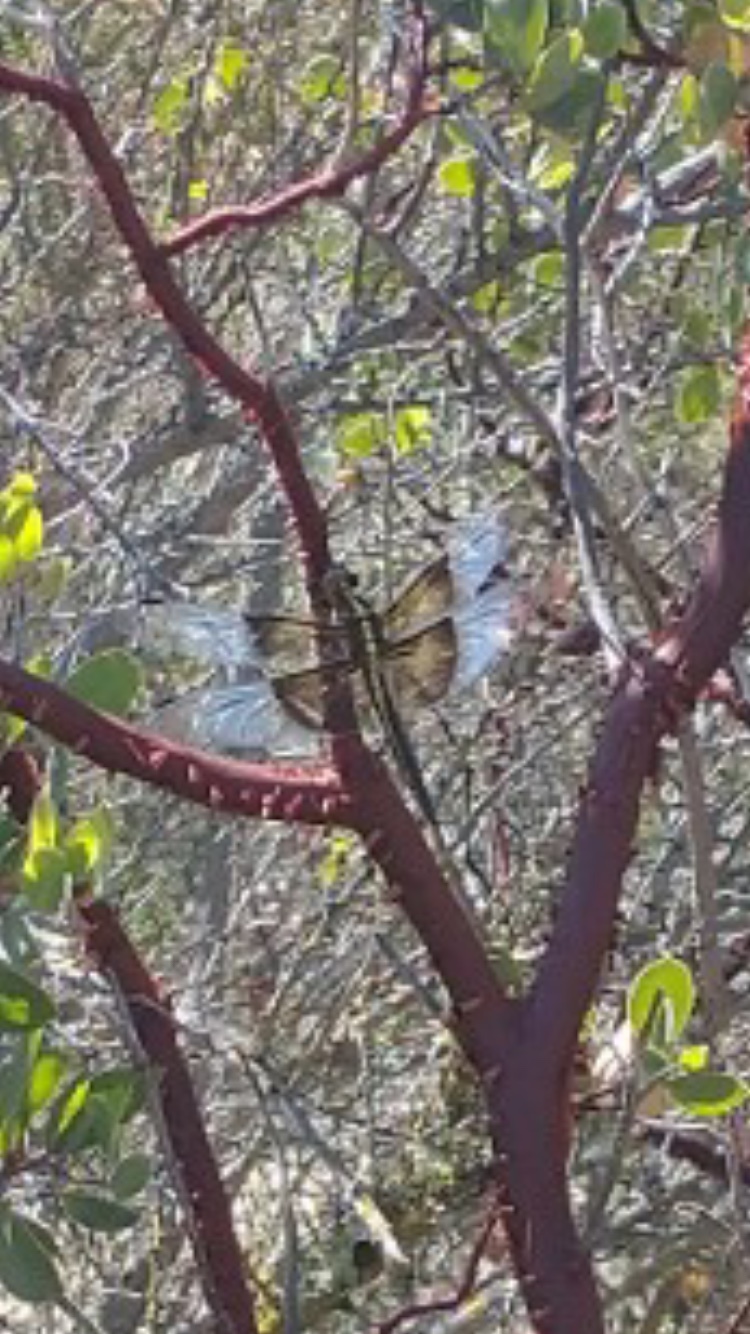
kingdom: Animalia
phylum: Arthropoda
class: Insecta
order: Odonata
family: Libellulidae
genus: Libellula
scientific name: Libellula luctuosa
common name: Widow skimmer
